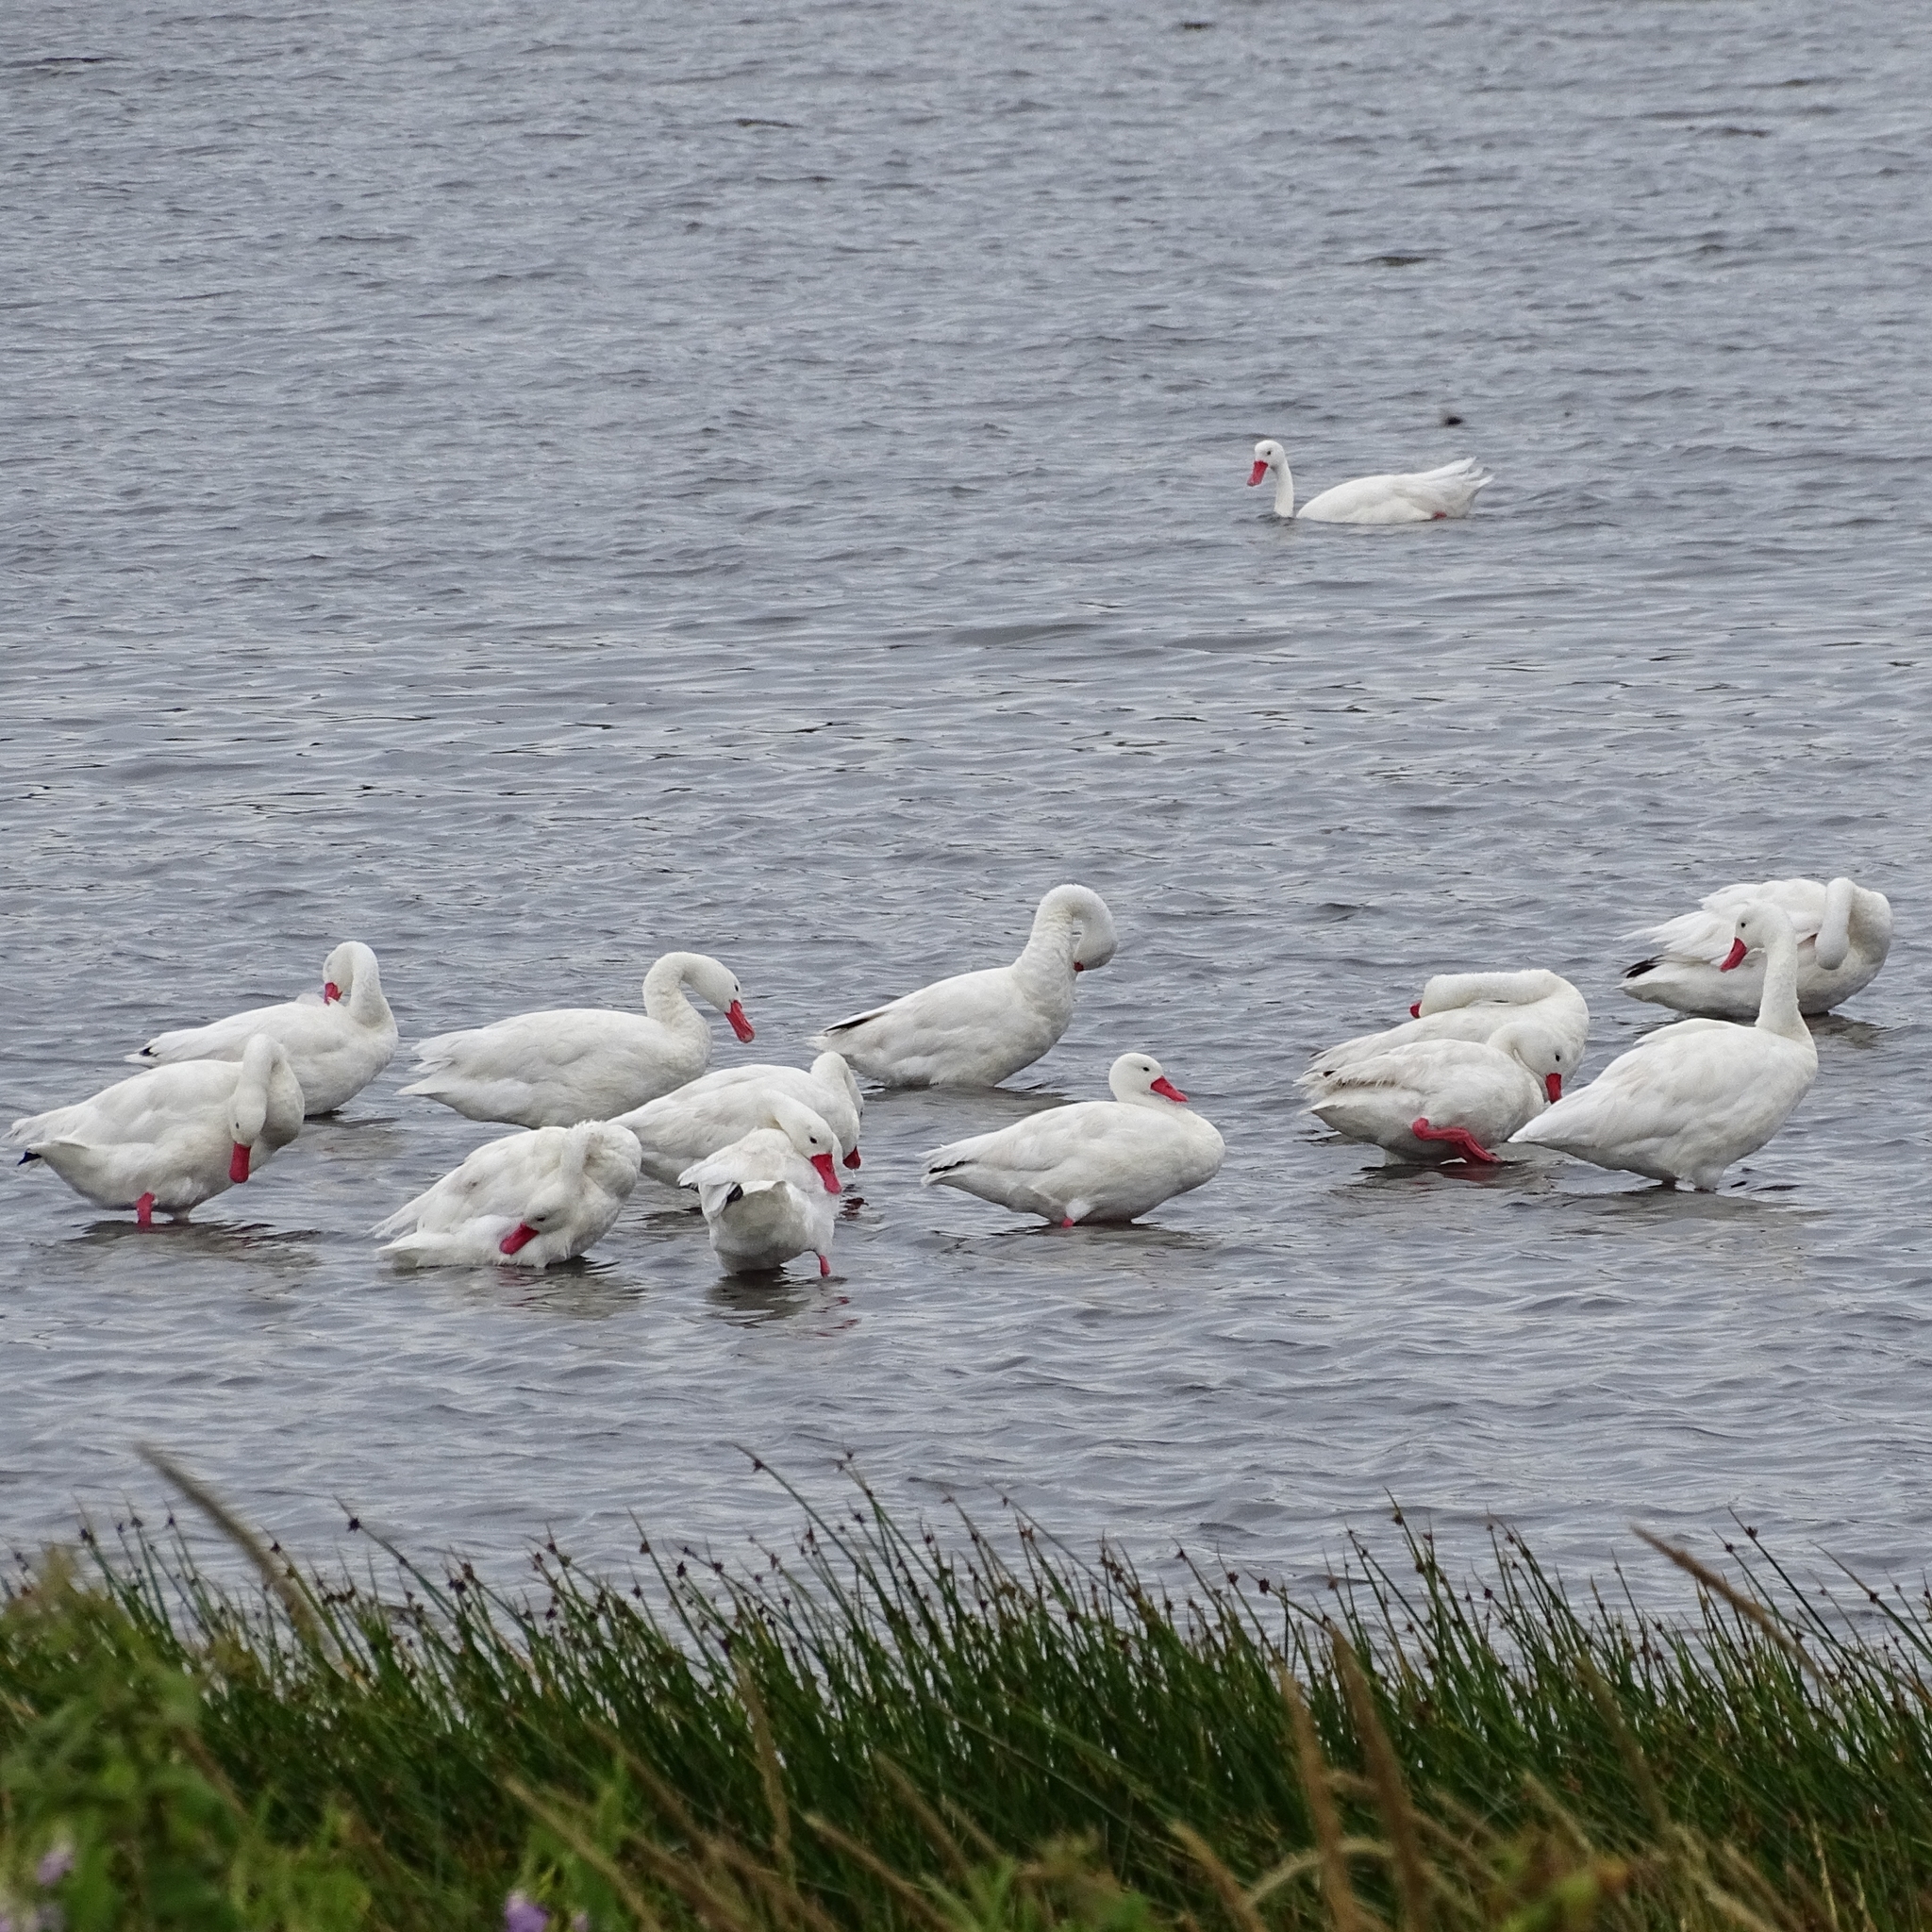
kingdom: Animalia
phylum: Chordata
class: Aves
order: Anseriformes
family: Anatidae
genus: Coscoroba
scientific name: Coscoroba coscoroba
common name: Coscoroba swan
